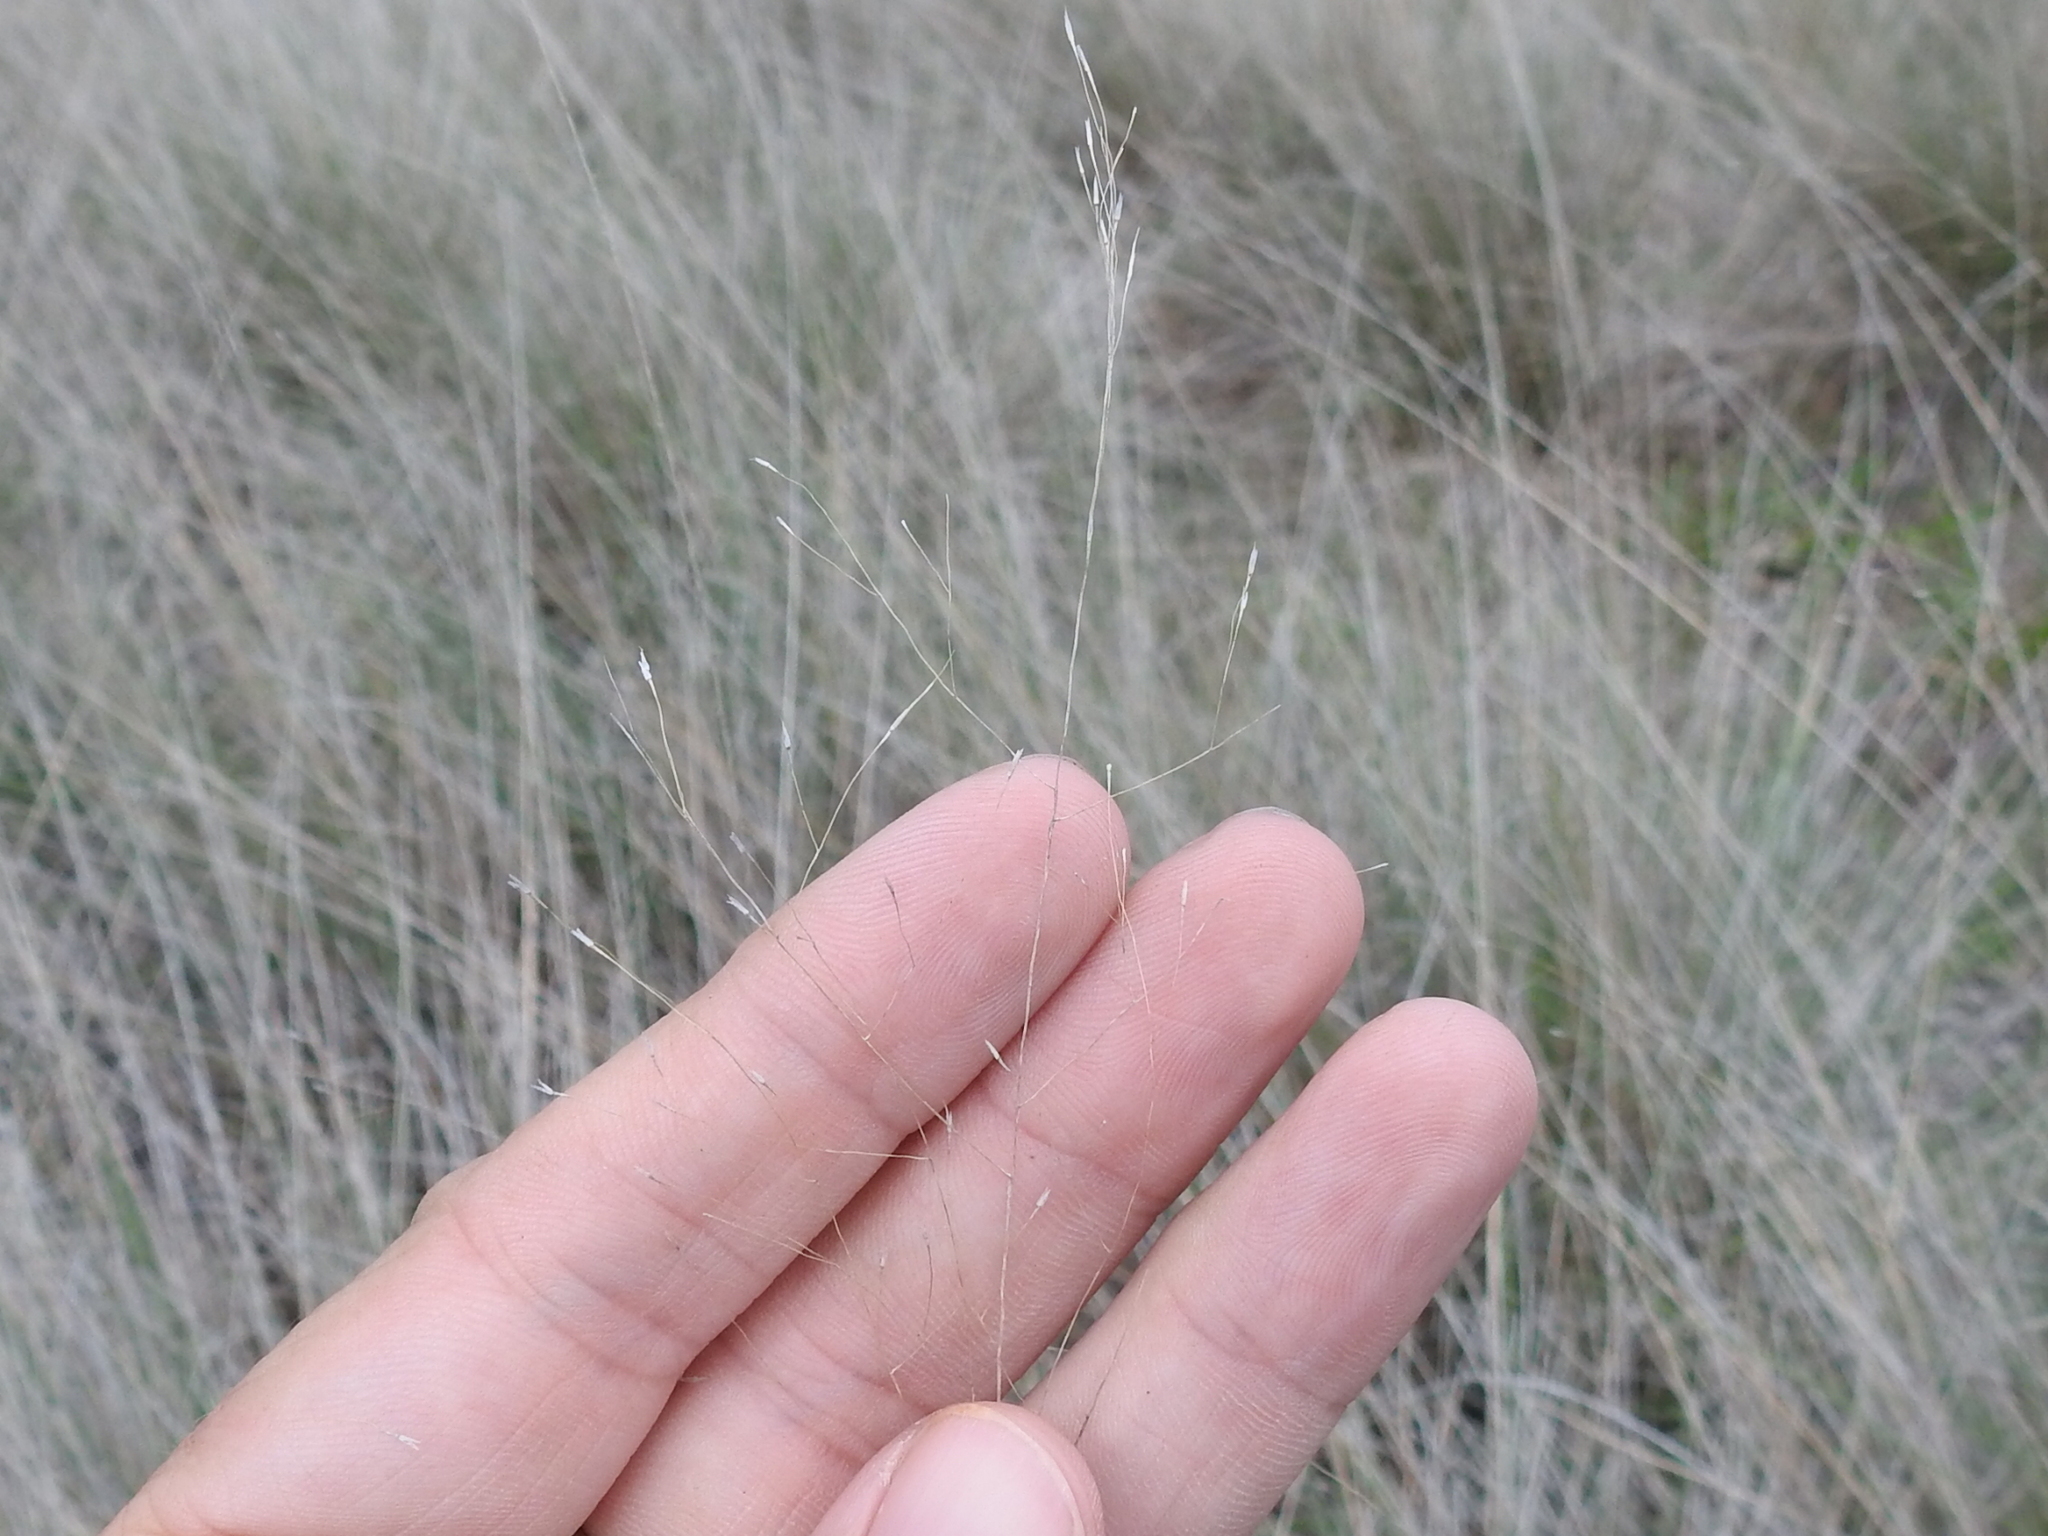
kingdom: Plantae
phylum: Tracheophyta
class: Liliopsida
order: Poales
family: Poaceae
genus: Muhlenbergia
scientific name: Muhlenbergia reverchonii
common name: Seep muhly
